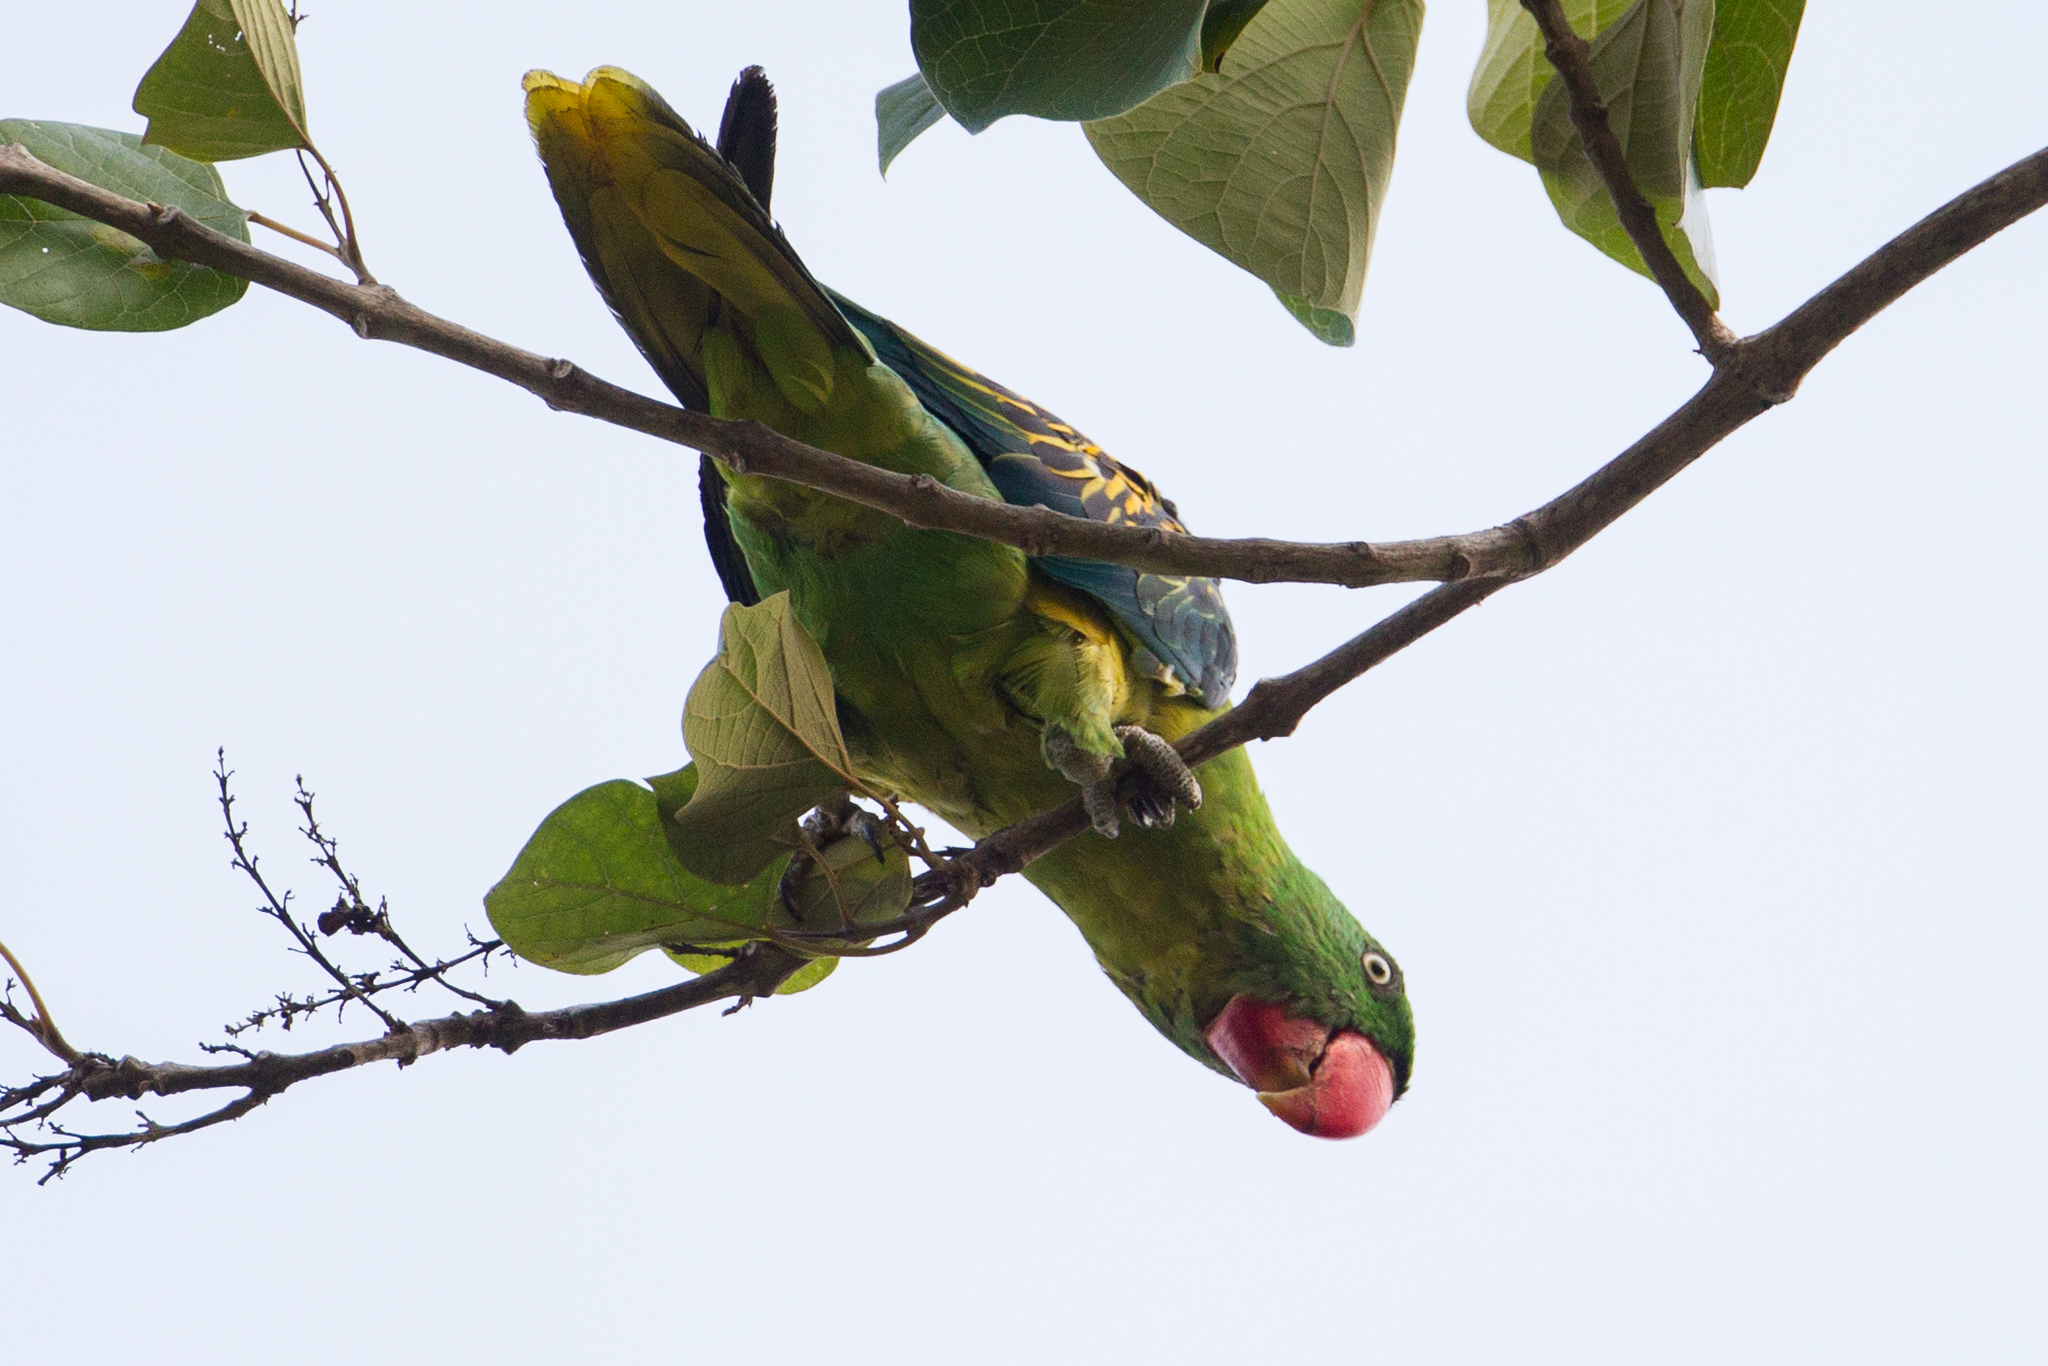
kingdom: Animalia
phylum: Chordata
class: Aves
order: Psittaciformes
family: Psittacidae
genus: Tanygnathus
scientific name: Tanygnathus megalorynchos
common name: Great-billed parrot
